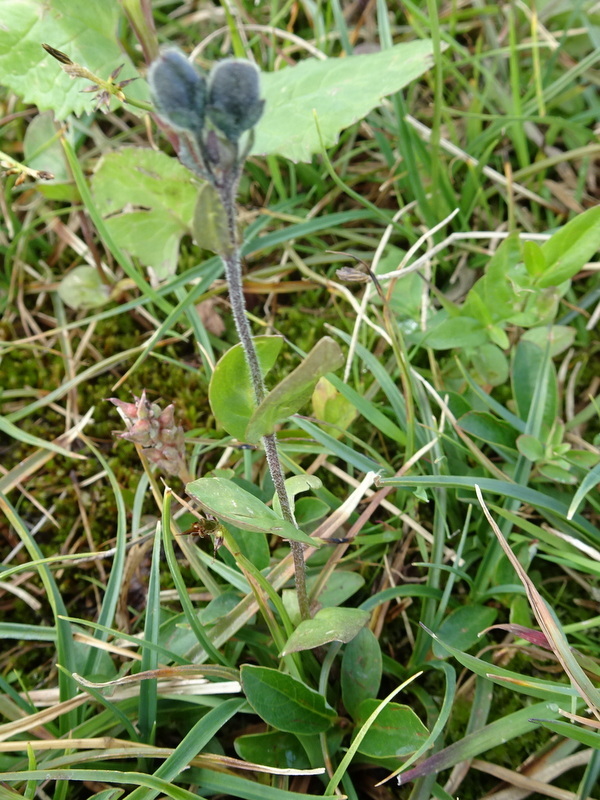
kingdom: Plantae
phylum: Tracheophyta
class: Magnoliopsida
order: Lamiales
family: Plantaginaceae
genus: Veronica
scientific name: Veronica wormskjoldii
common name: American alpine speedwell
